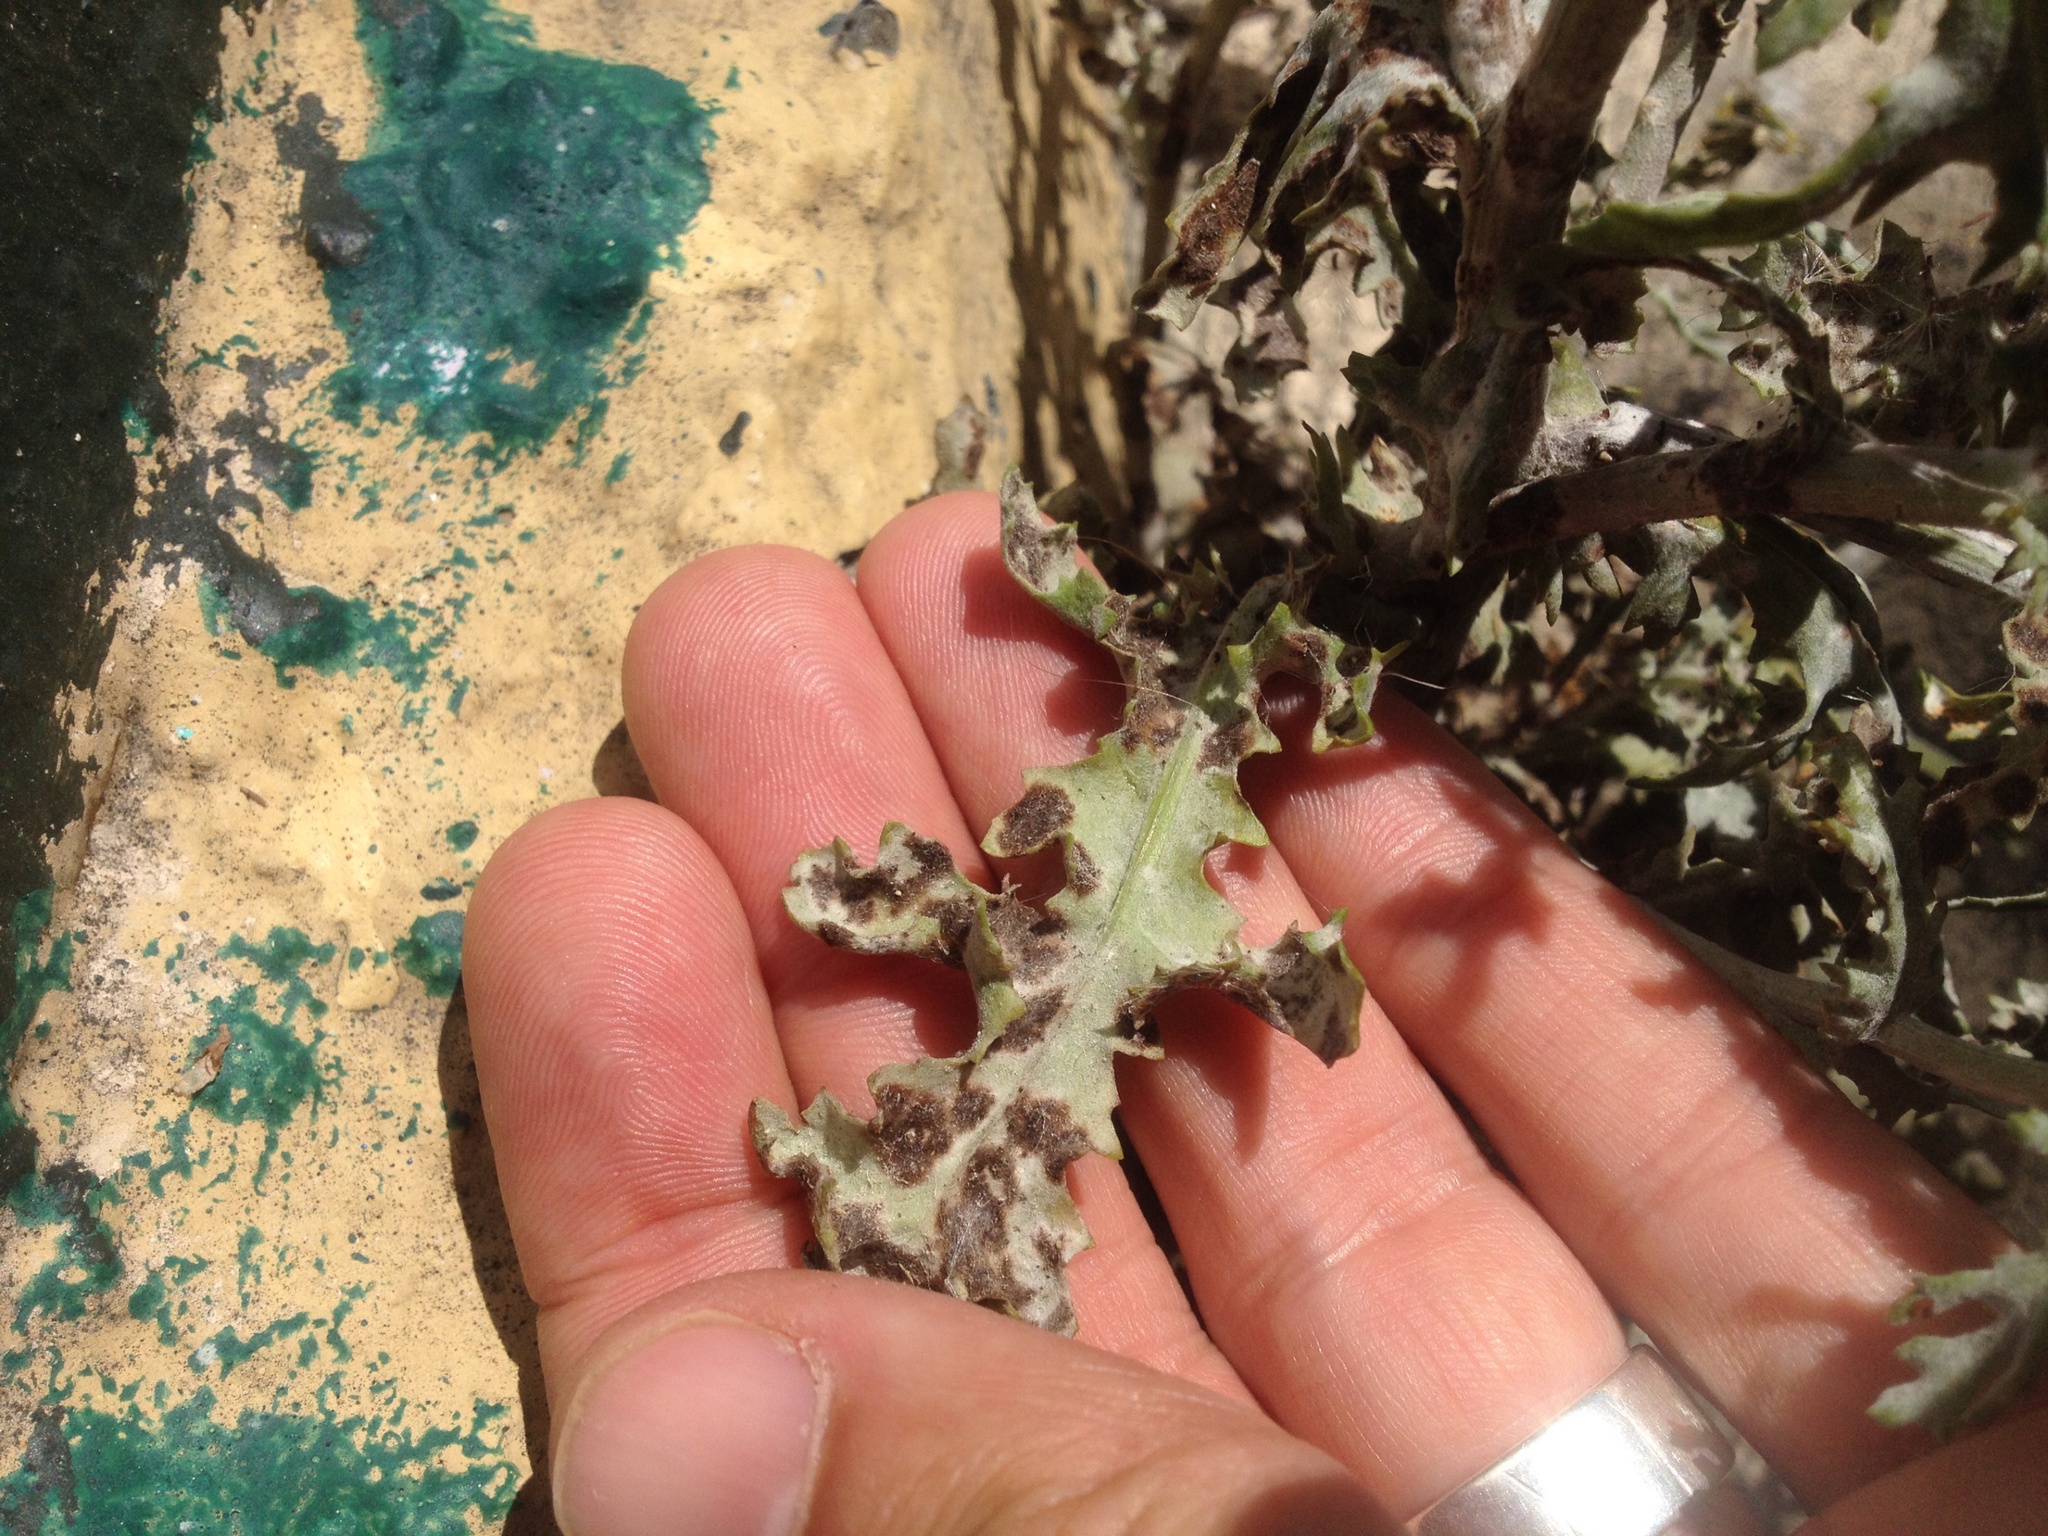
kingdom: Fungi
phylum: Ascomycota
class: Leotiomycetes
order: Helotiales
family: Erysiphaceae
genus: Neoerysiphe
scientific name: Neoerysiphe kerribeeensis
